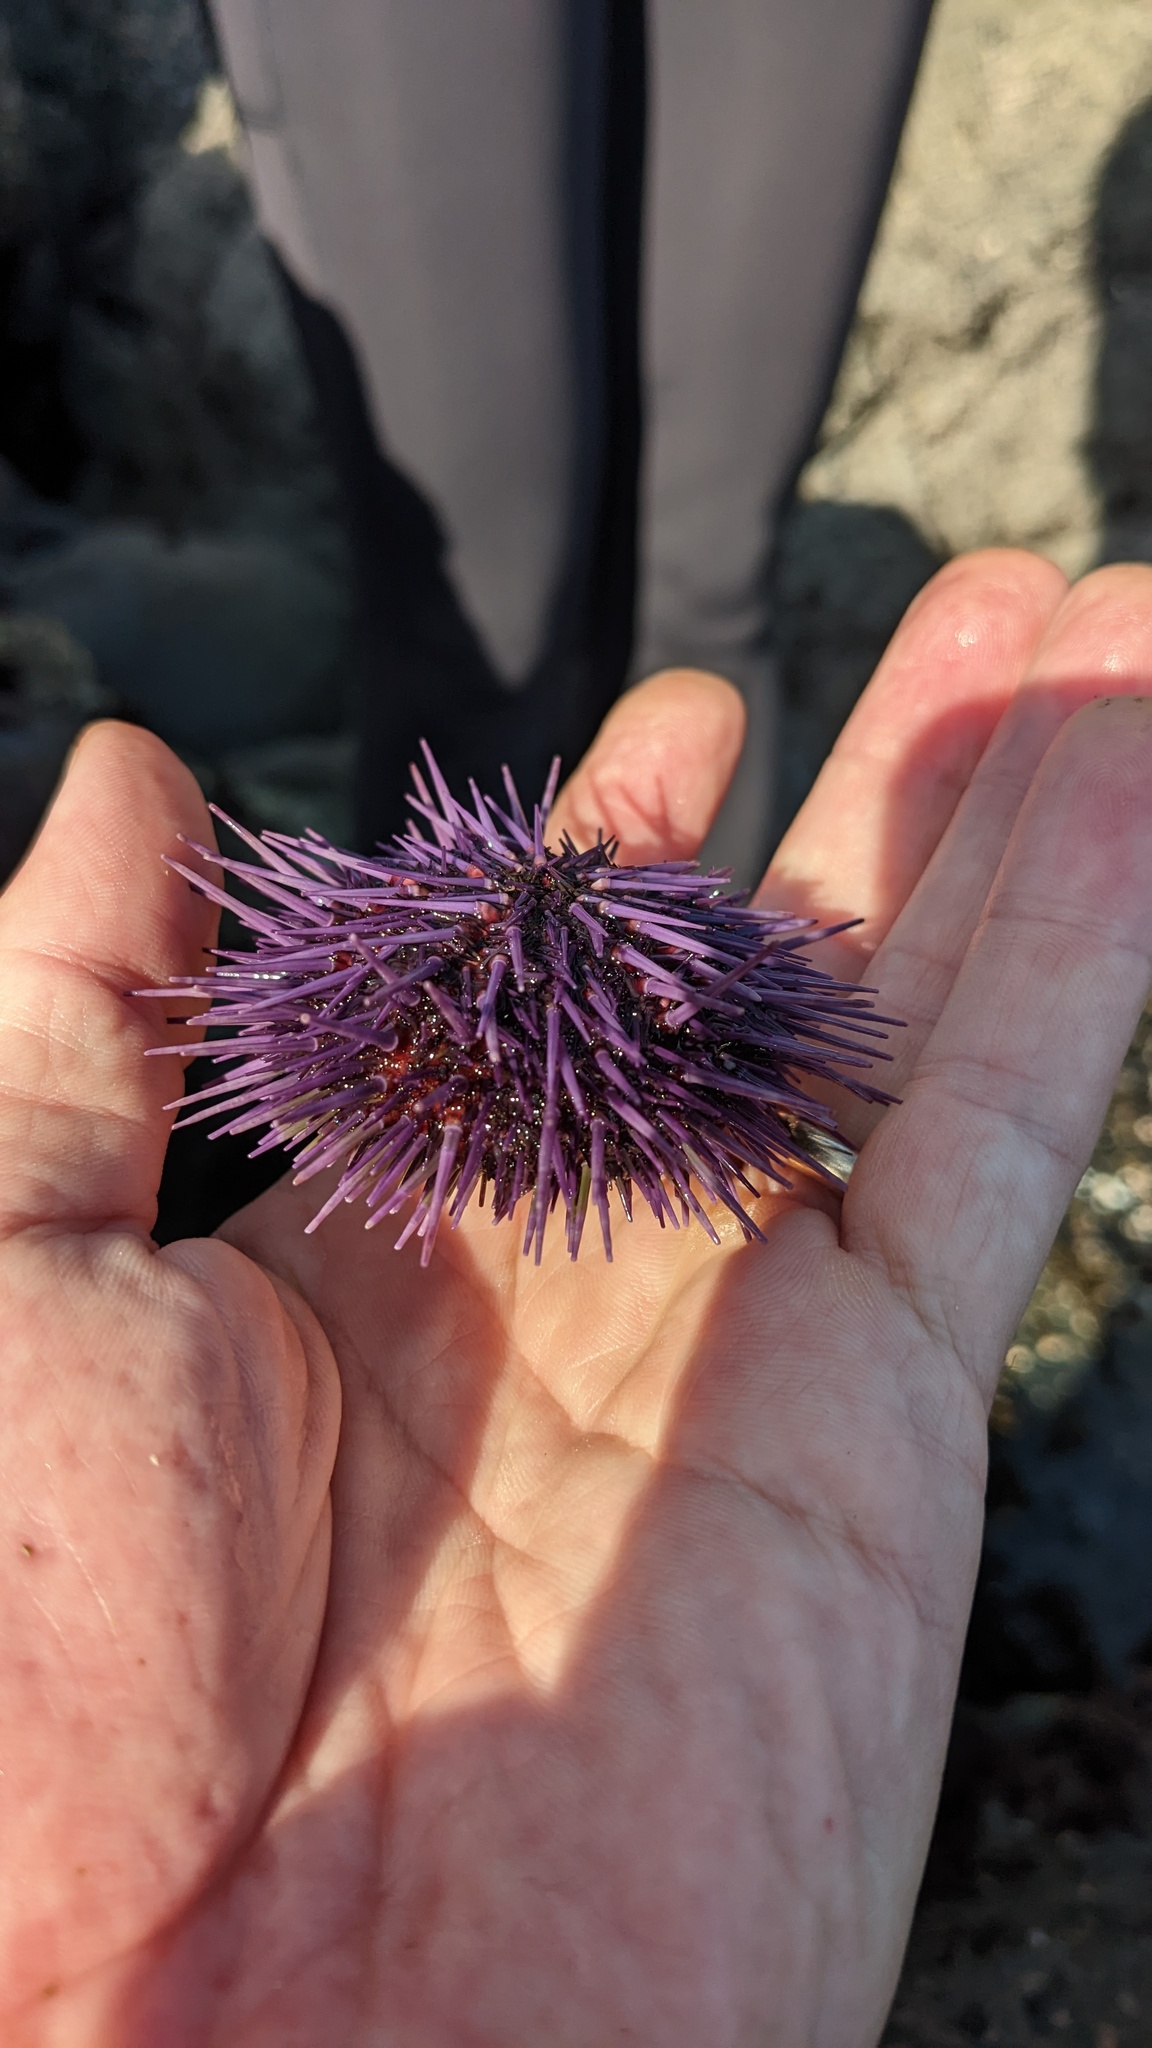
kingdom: Animalia
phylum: Echinodermata
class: Echinoidea
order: Camarodonta
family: Strongylocentrotidae
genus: Strongylocentrotus
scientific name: Strongylocentrotus purpuratus
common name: Purple sea urchin
